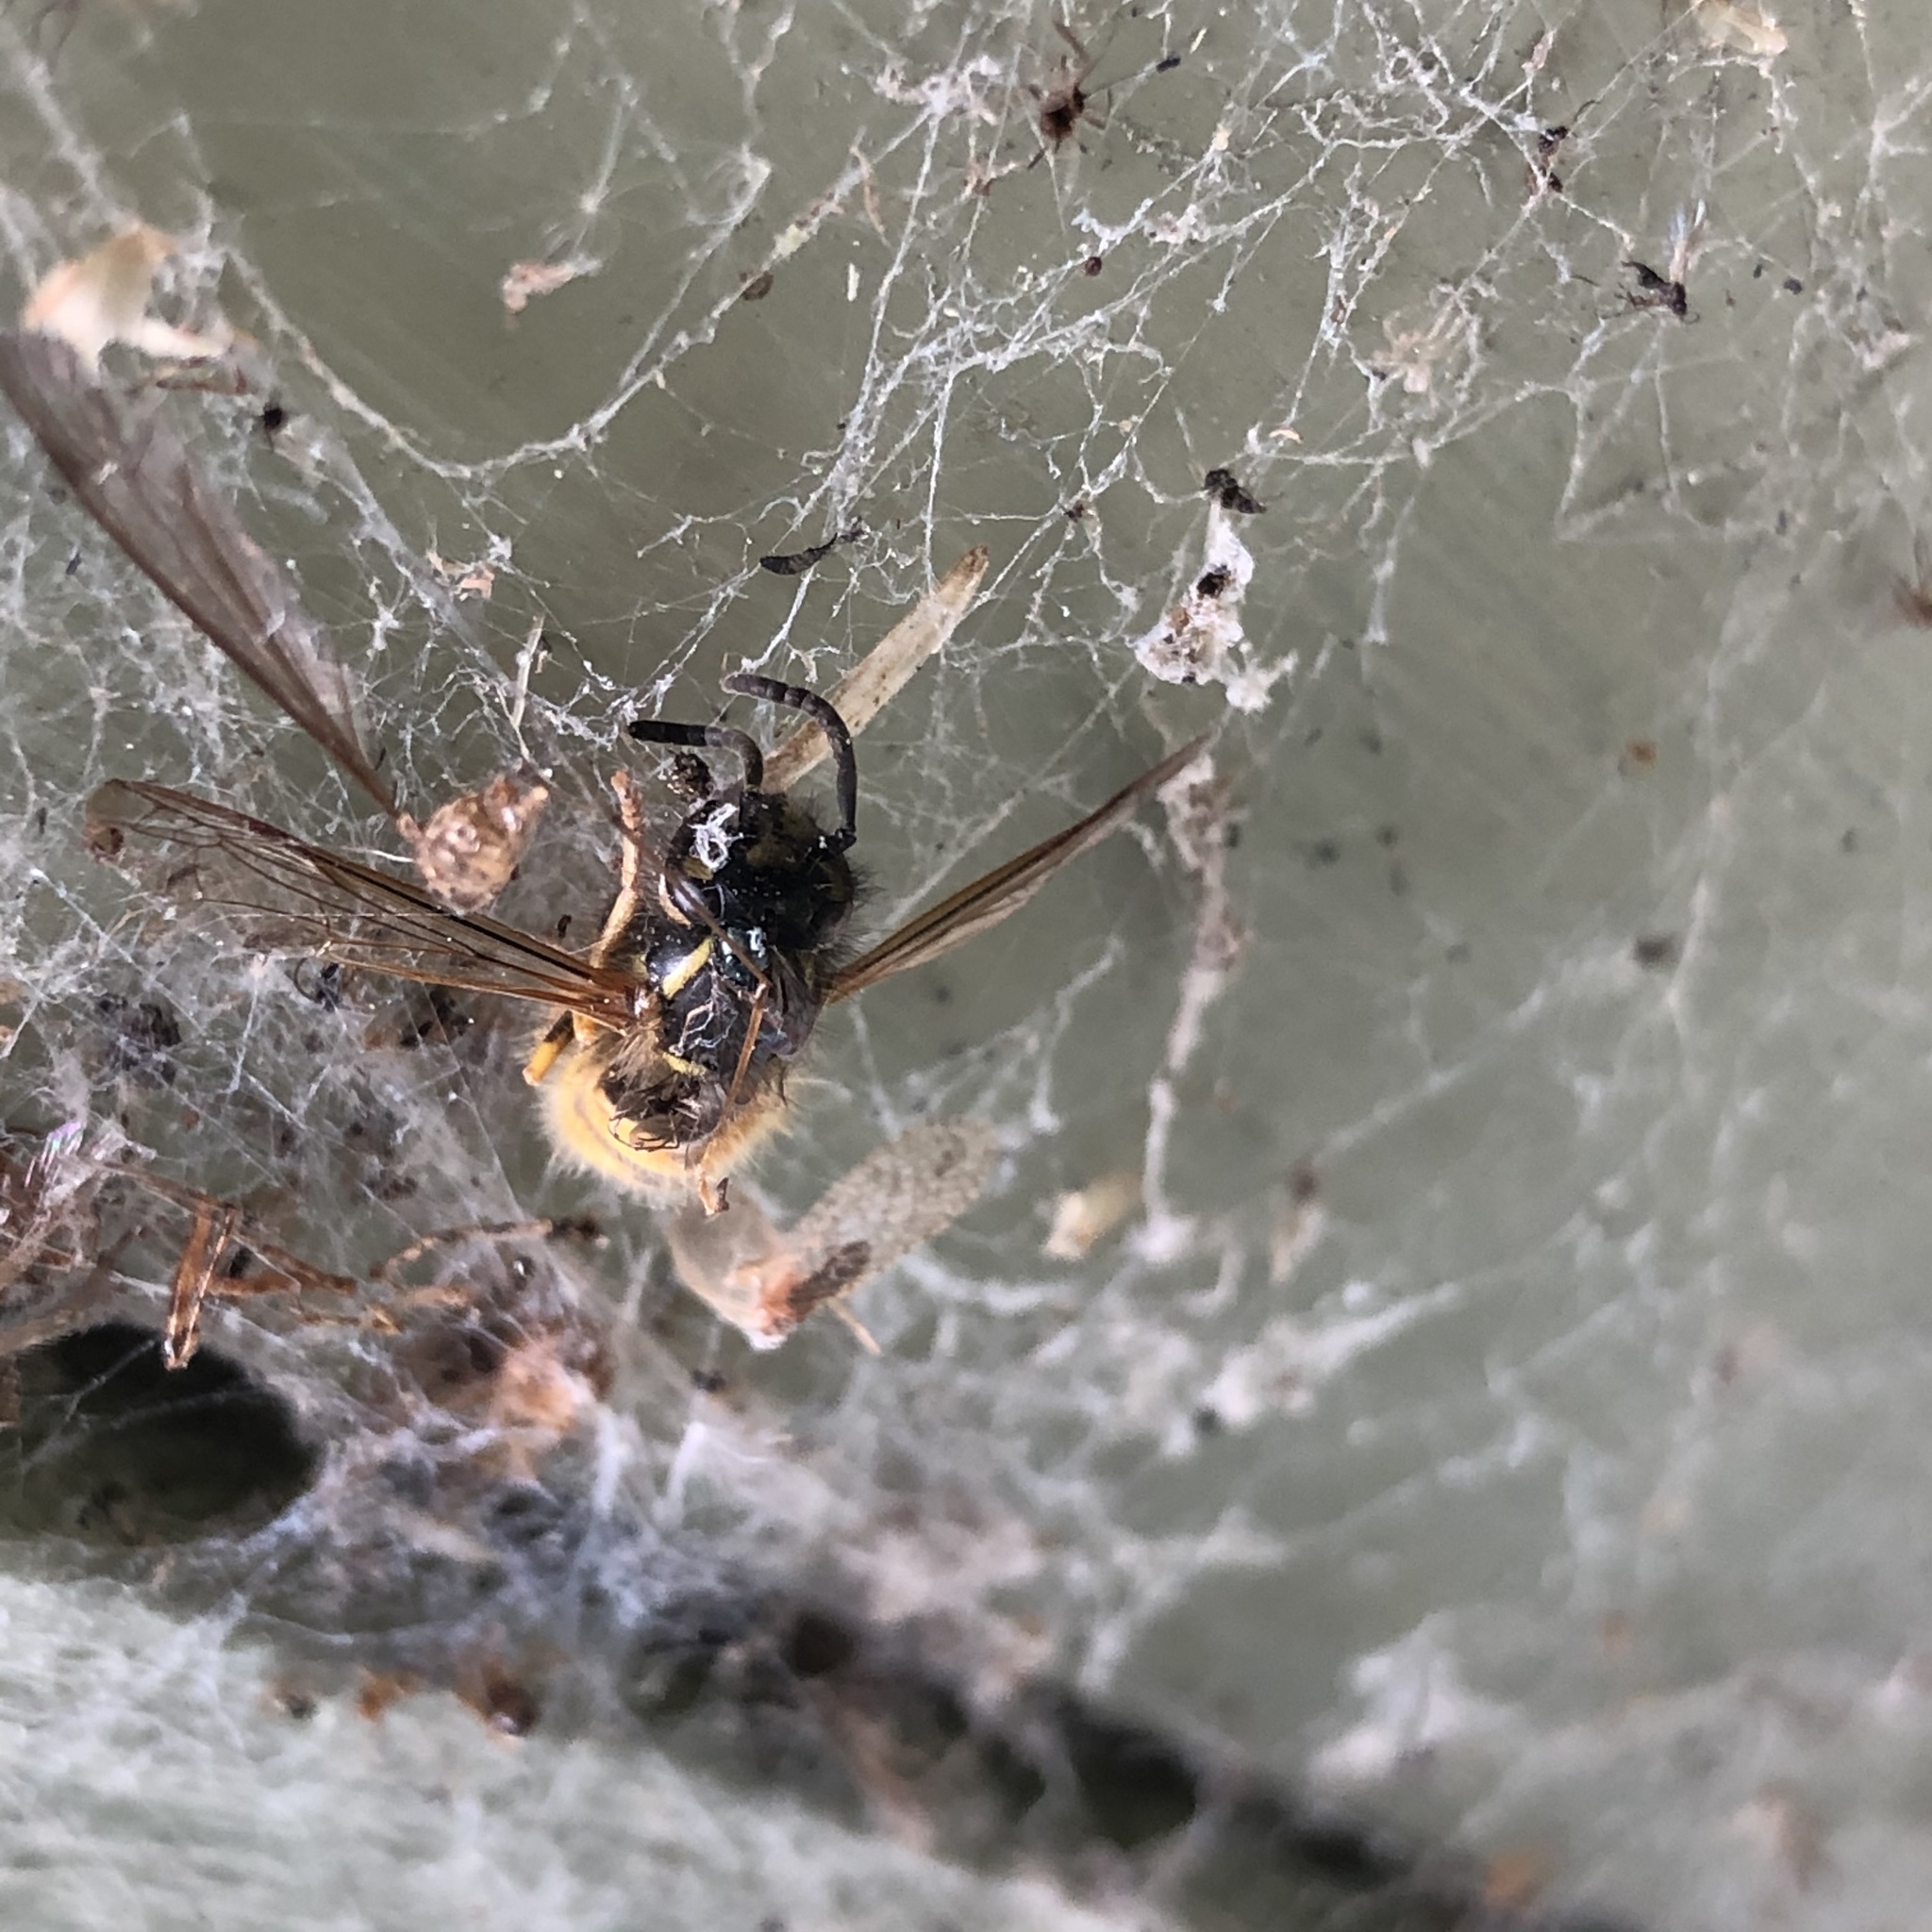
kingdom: Animalia
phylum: Arthropoda
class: Insecta
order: Hymenoptera
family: Vespidae
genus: Vespula
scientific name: Vespula vulgaris
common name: Common wasp
